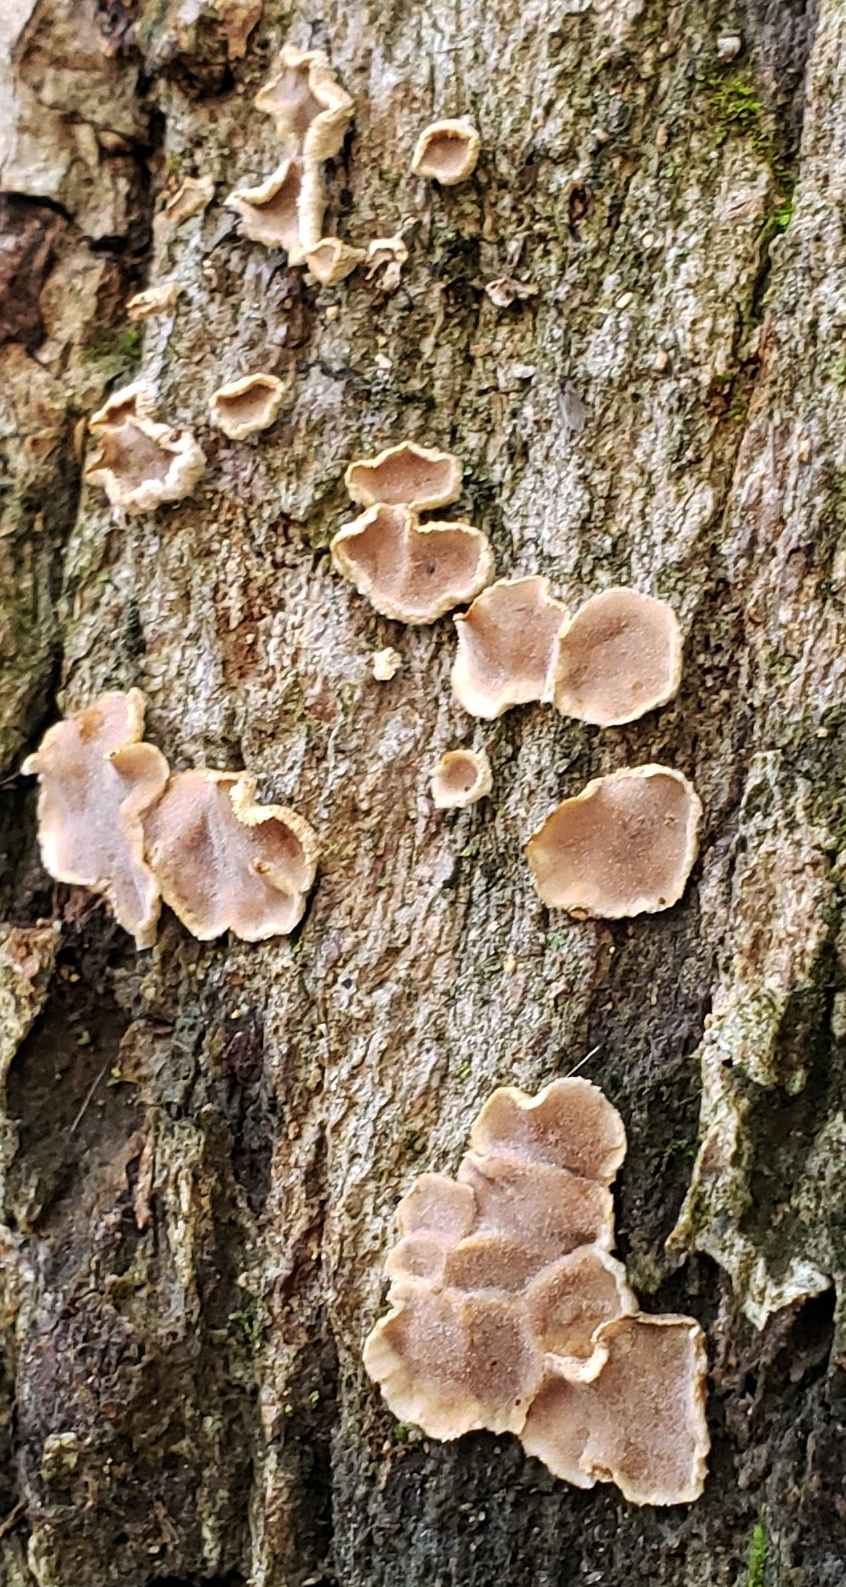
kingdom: Fungi
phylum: Basidiomycota
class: Agaricomycetes
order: Russulales
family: Stereaceae
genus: Acanthophysium
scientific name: Acanthophysium oakesii
